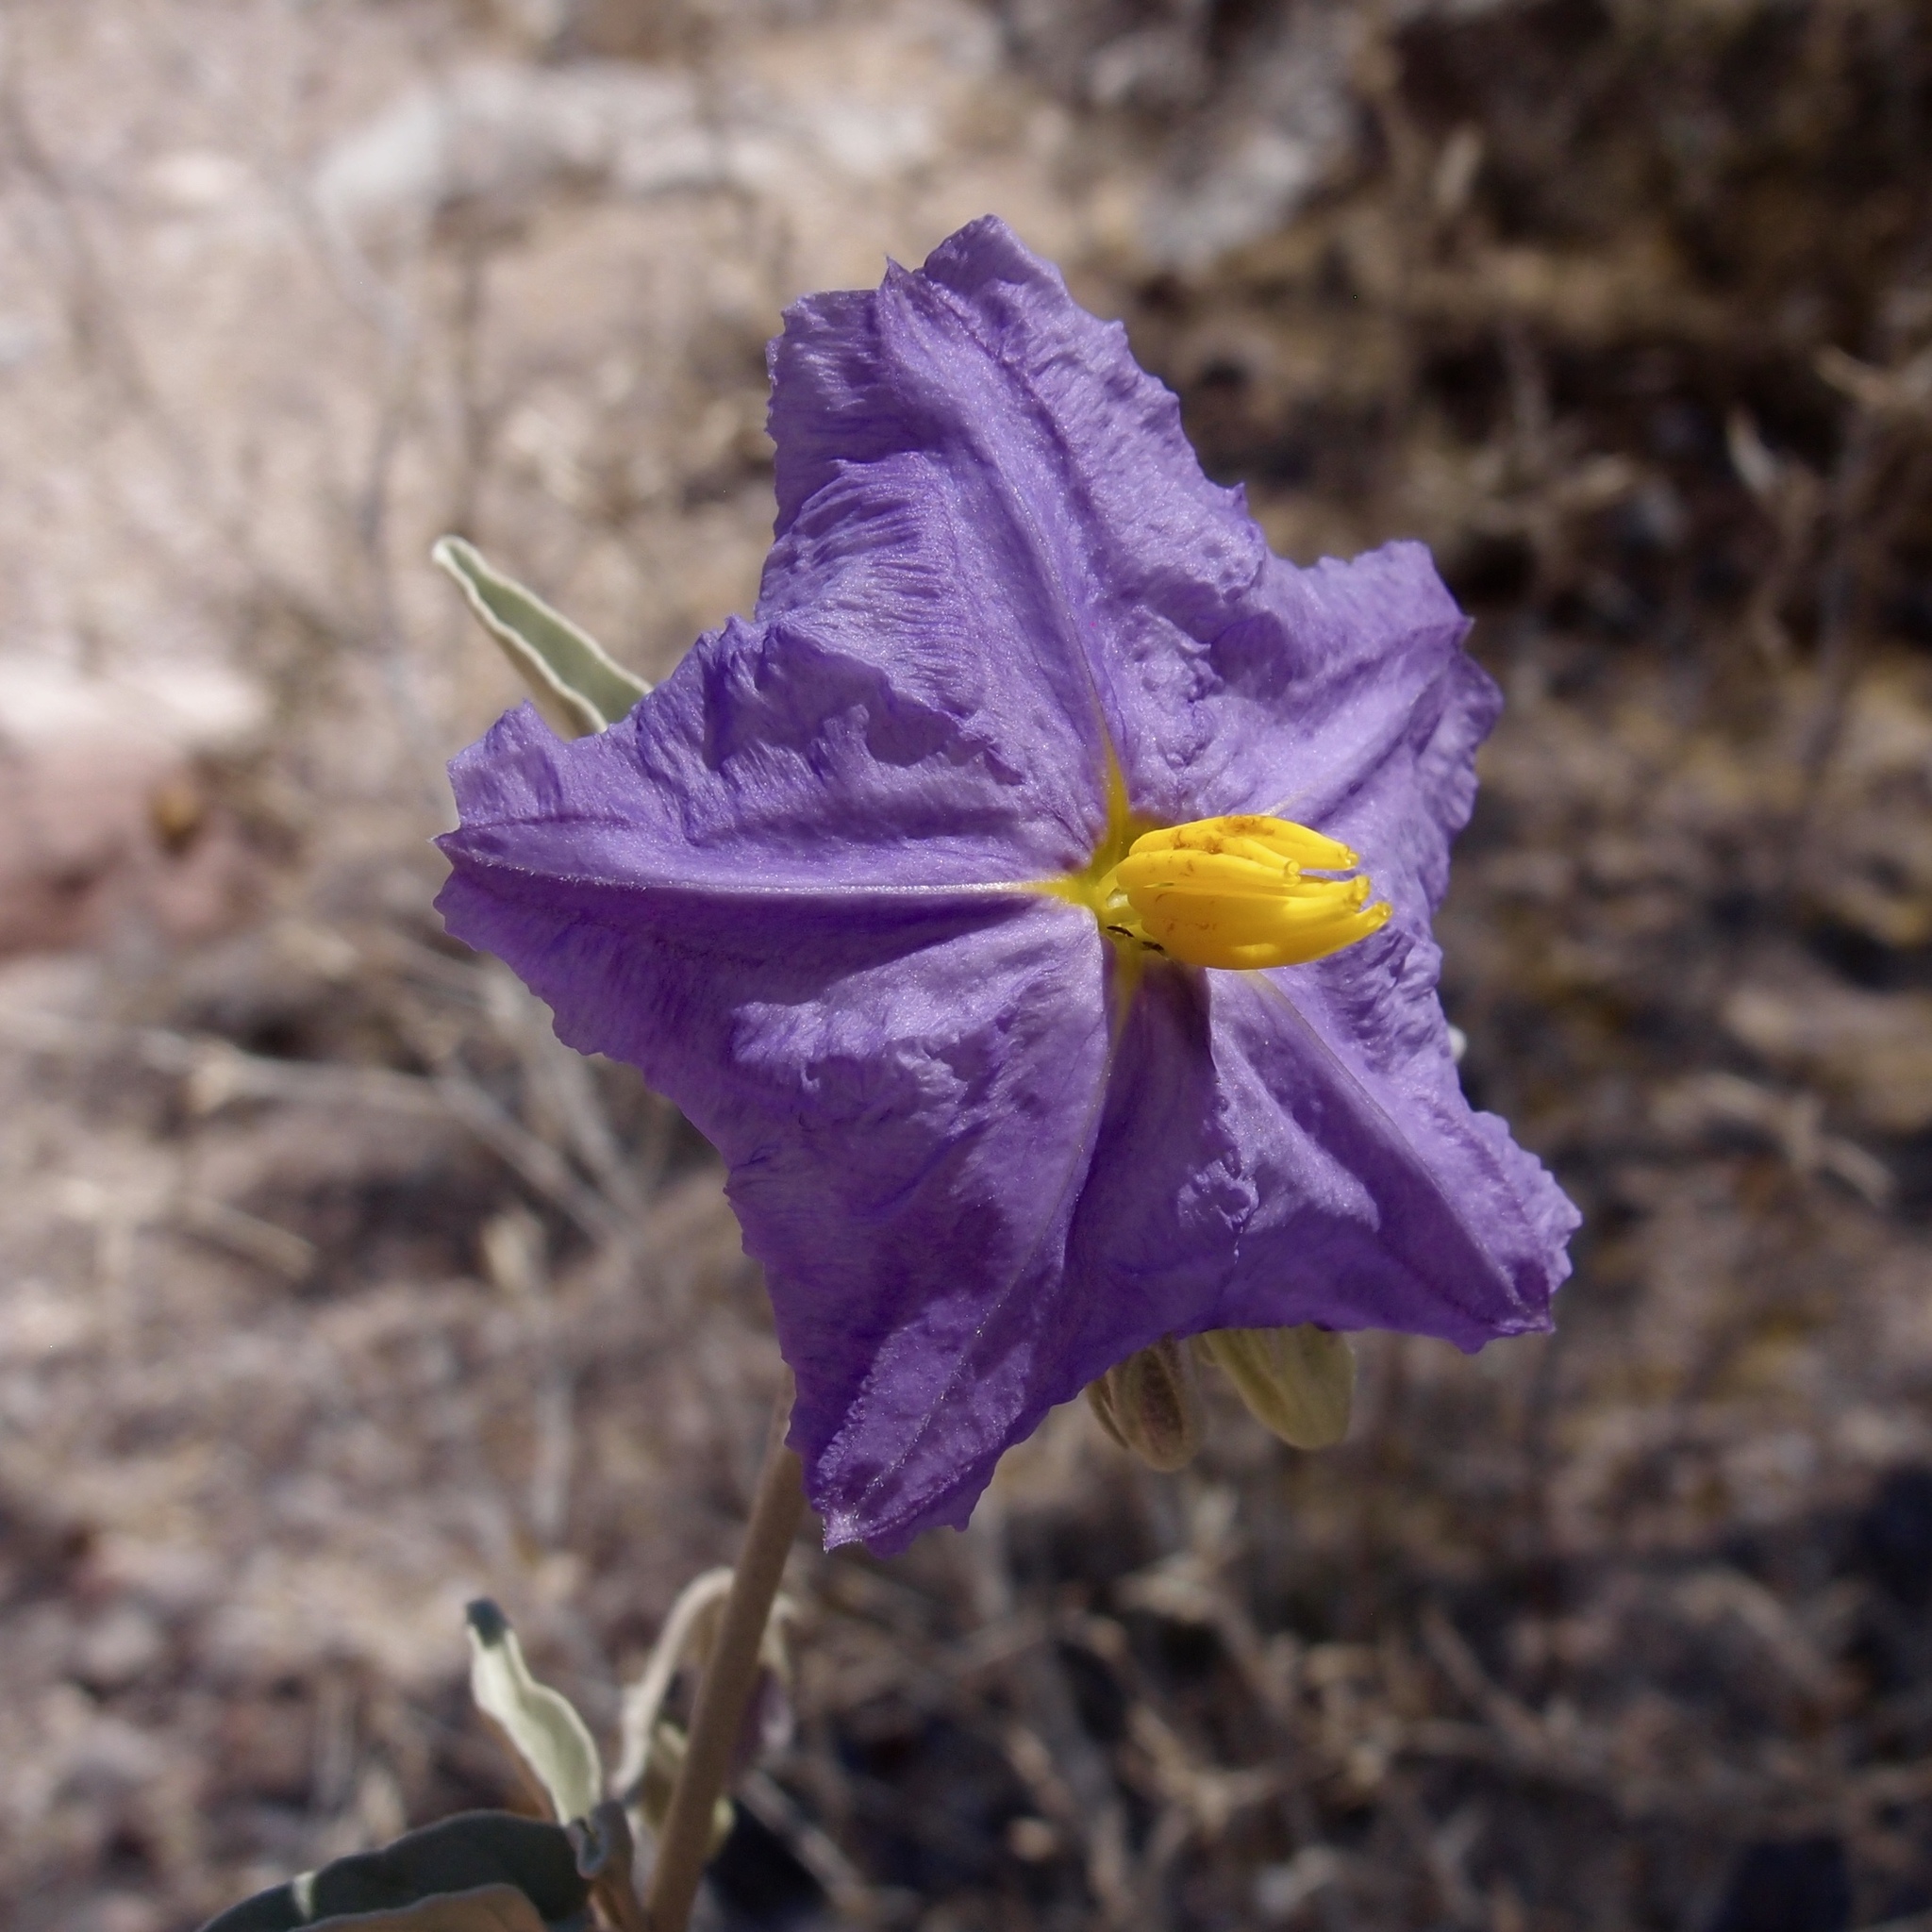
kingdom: Plantae
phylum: Tracheophyta
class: Magnoliopsida
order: Solanales
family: Solanaceae
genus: Solanum
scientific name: Solanum hindsianum
